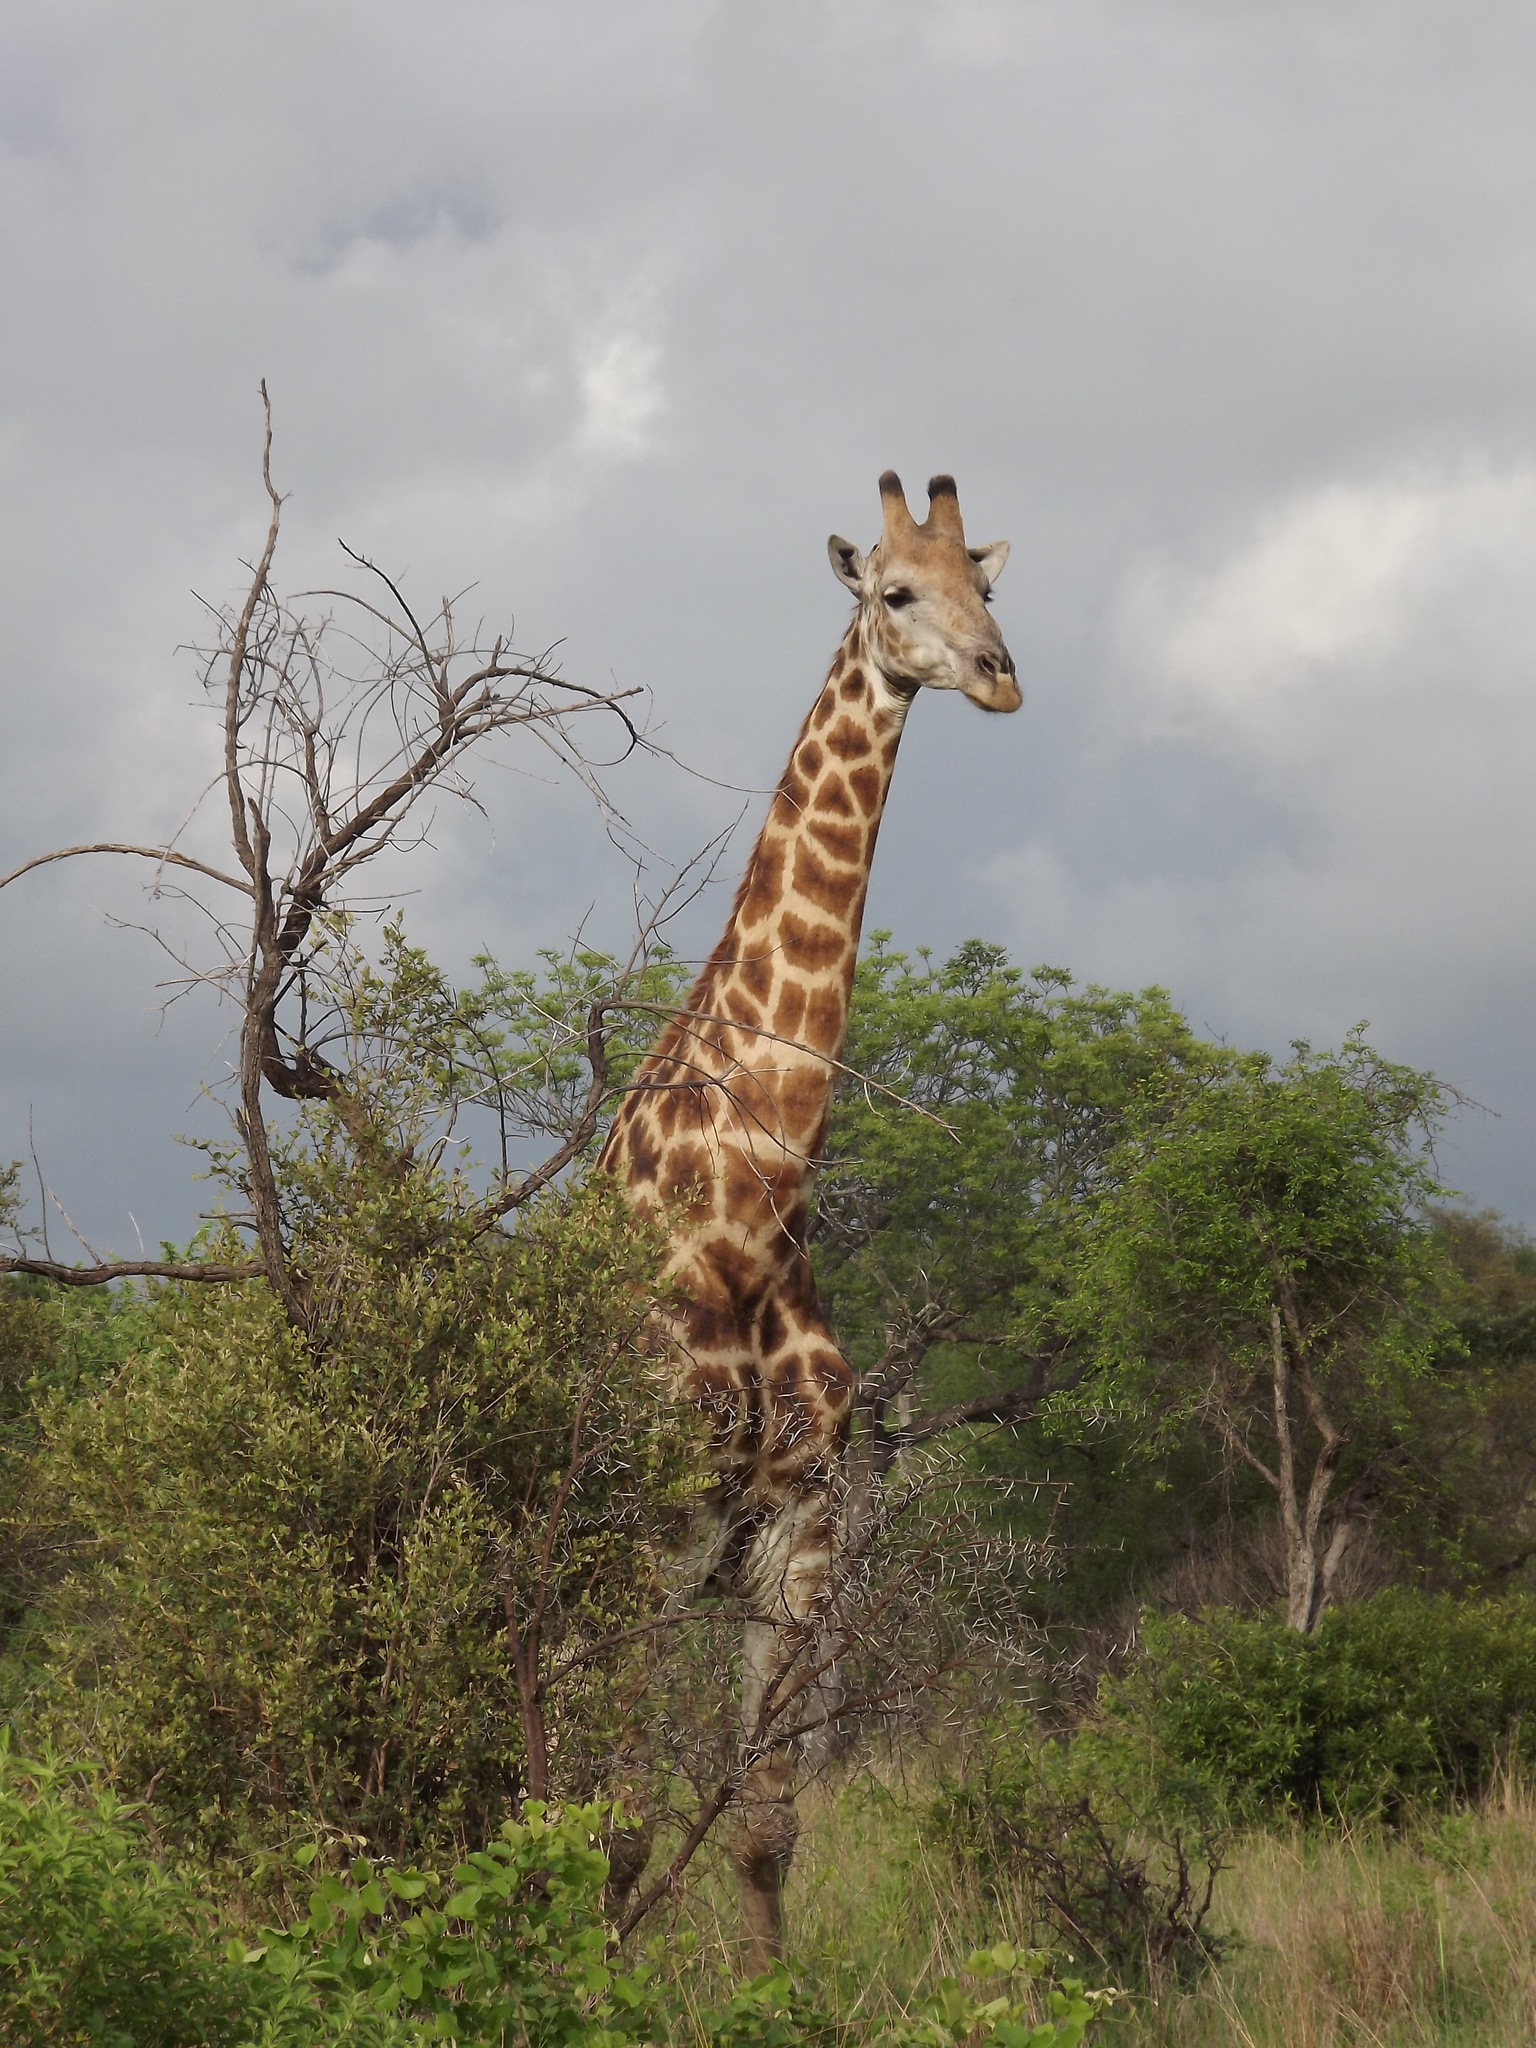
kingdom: Animalia
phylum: Chordata
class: Mammalia
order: Artiodactyla
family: Giraffidae
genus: Giraffa
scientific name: Giraffa giraffa
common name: Southern giraffe
